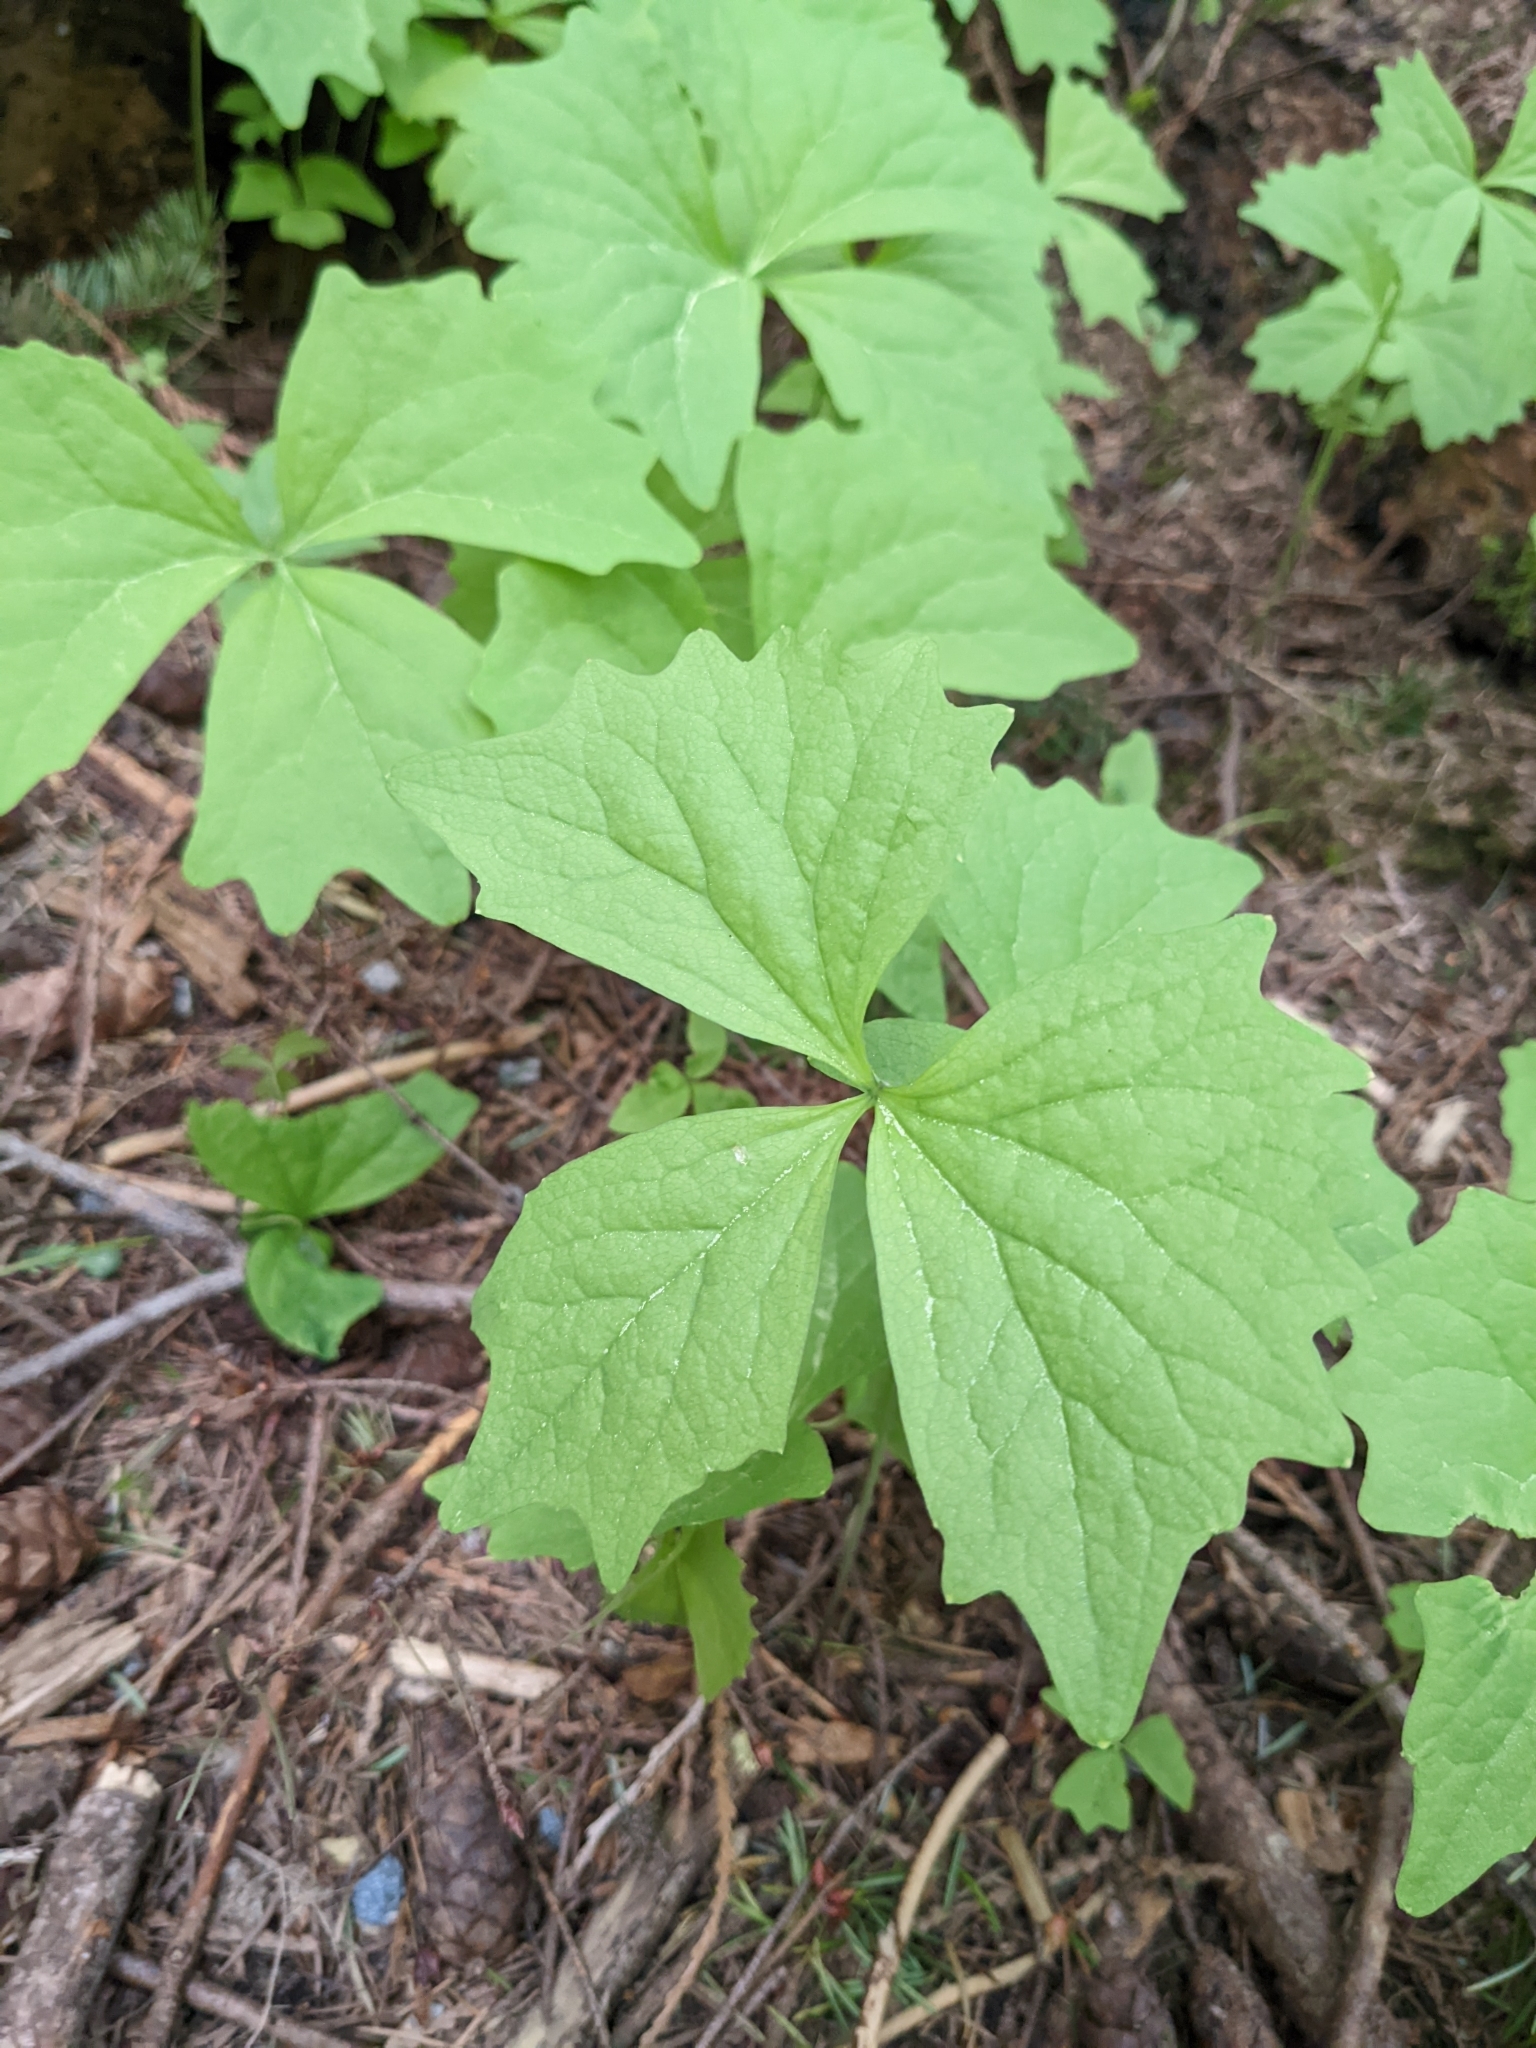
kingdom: Plantae
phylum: Tracheophyta
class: Magnoliopsida
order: Ranunculales
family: Berberidaceae
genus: Achlys
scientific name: Achlys triphylla
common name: Vanilla-leaf
